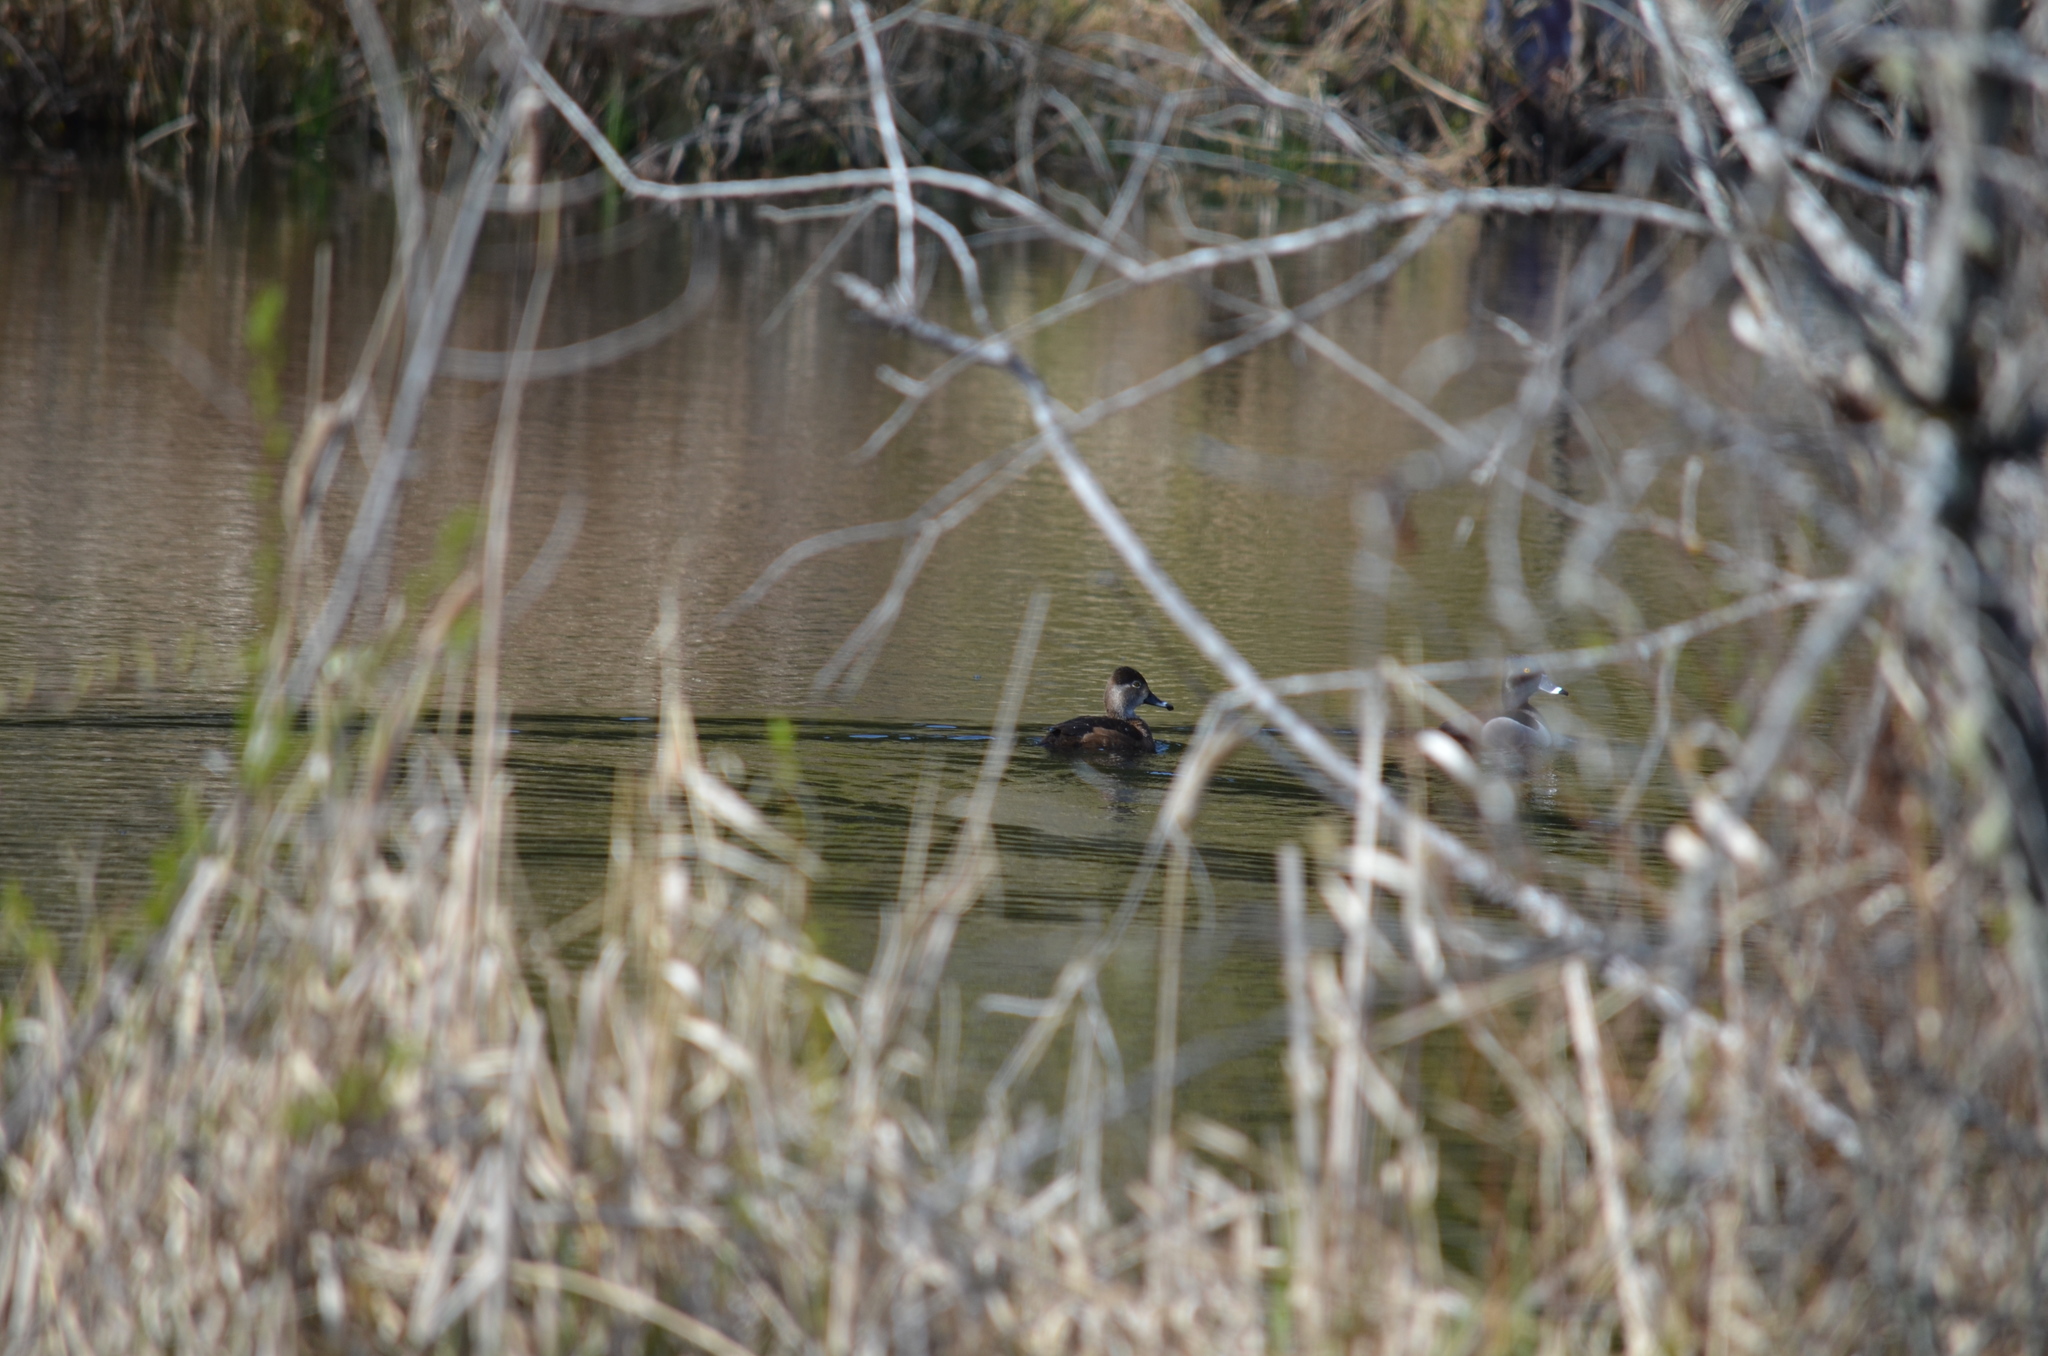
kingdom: Animalia
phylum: Chordata
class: Aves
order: Anseriformes
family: Anatidae
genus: Aythya
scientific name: Aythya collaris
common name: Ring-necked duck
